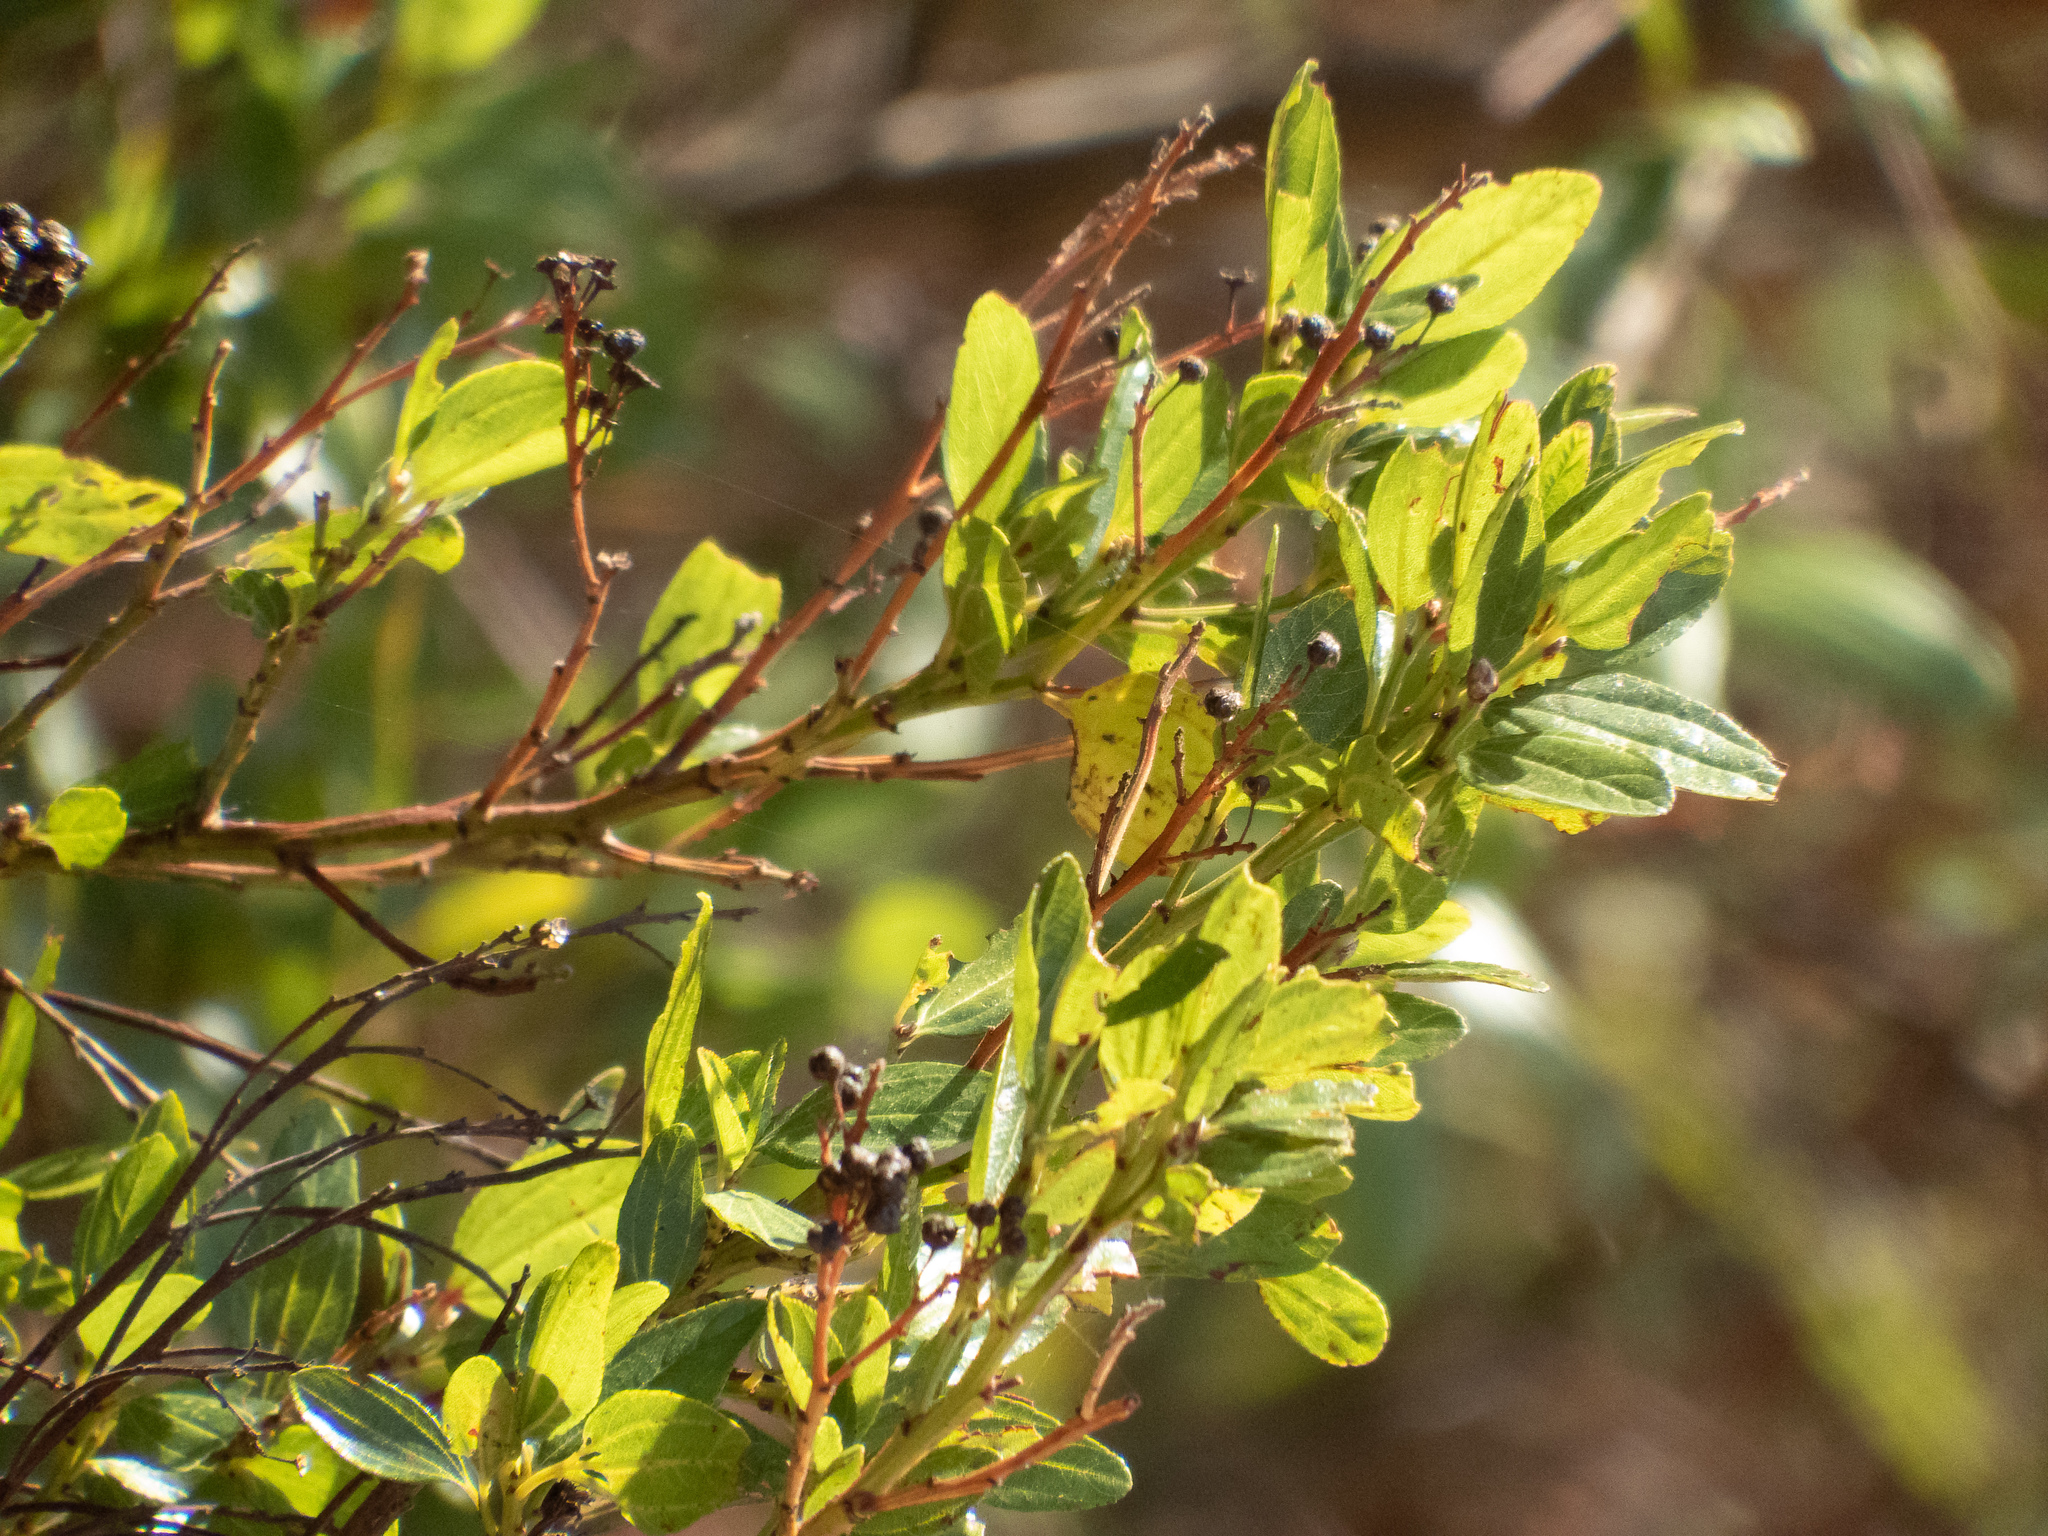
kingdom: Plantae
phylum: Tracheophyta
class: Magnoliopsida
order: Rosales
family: Rhamnaceae
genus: Ceanothus
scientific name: Ceanothus thyrsiflorus
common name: California-lilac
